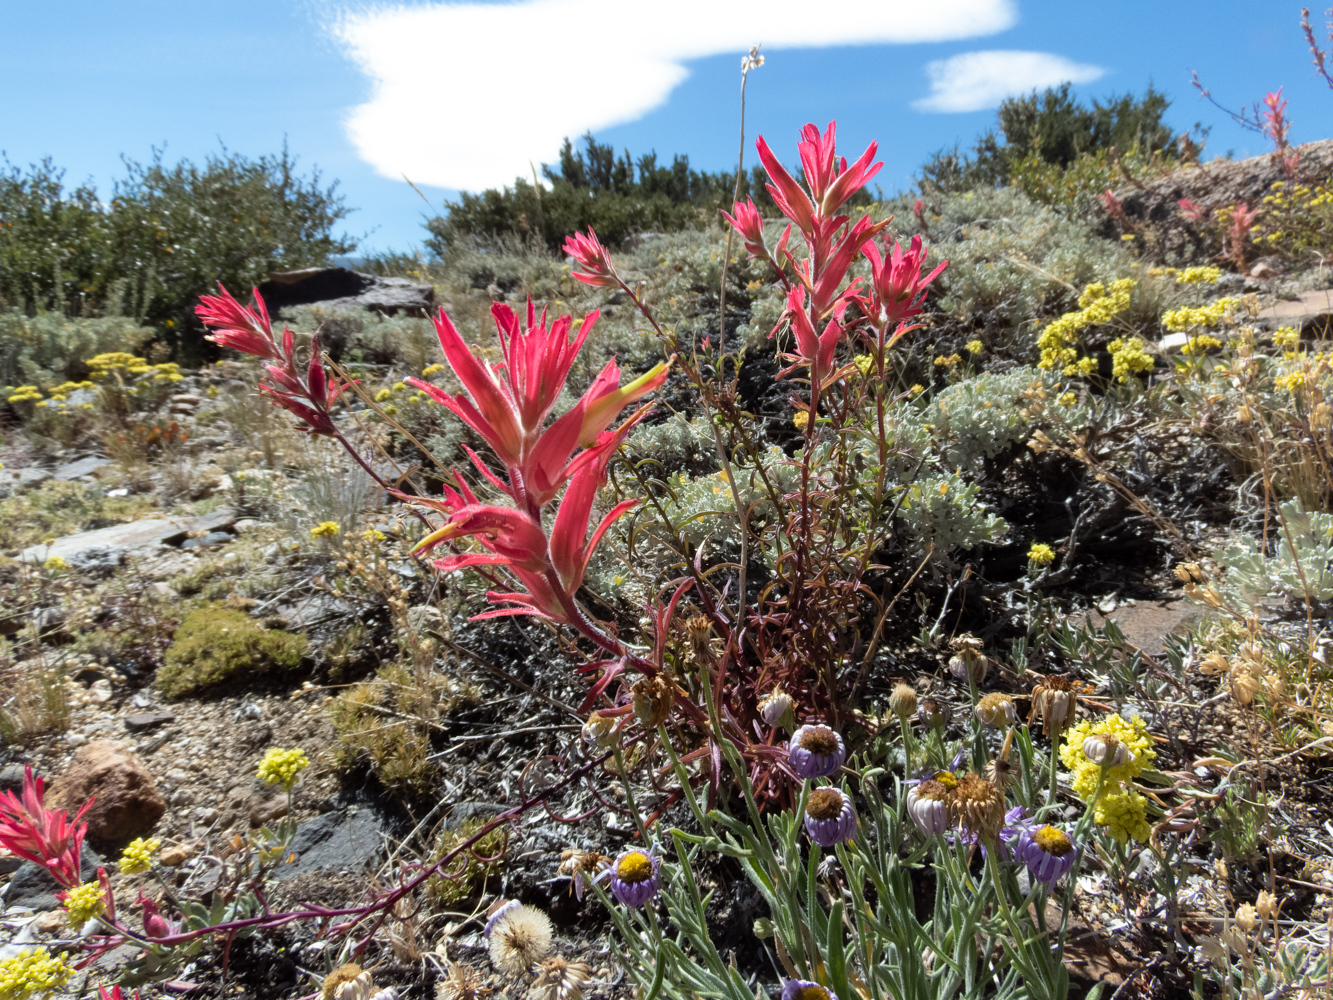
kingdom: Plantae
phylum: Tracheophyta
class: Magnoliopsida
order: Lamiales
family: Orobanchaceae
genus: Castilleja
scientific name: Castilleja linariifolia
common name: Wyoming paintbrush
